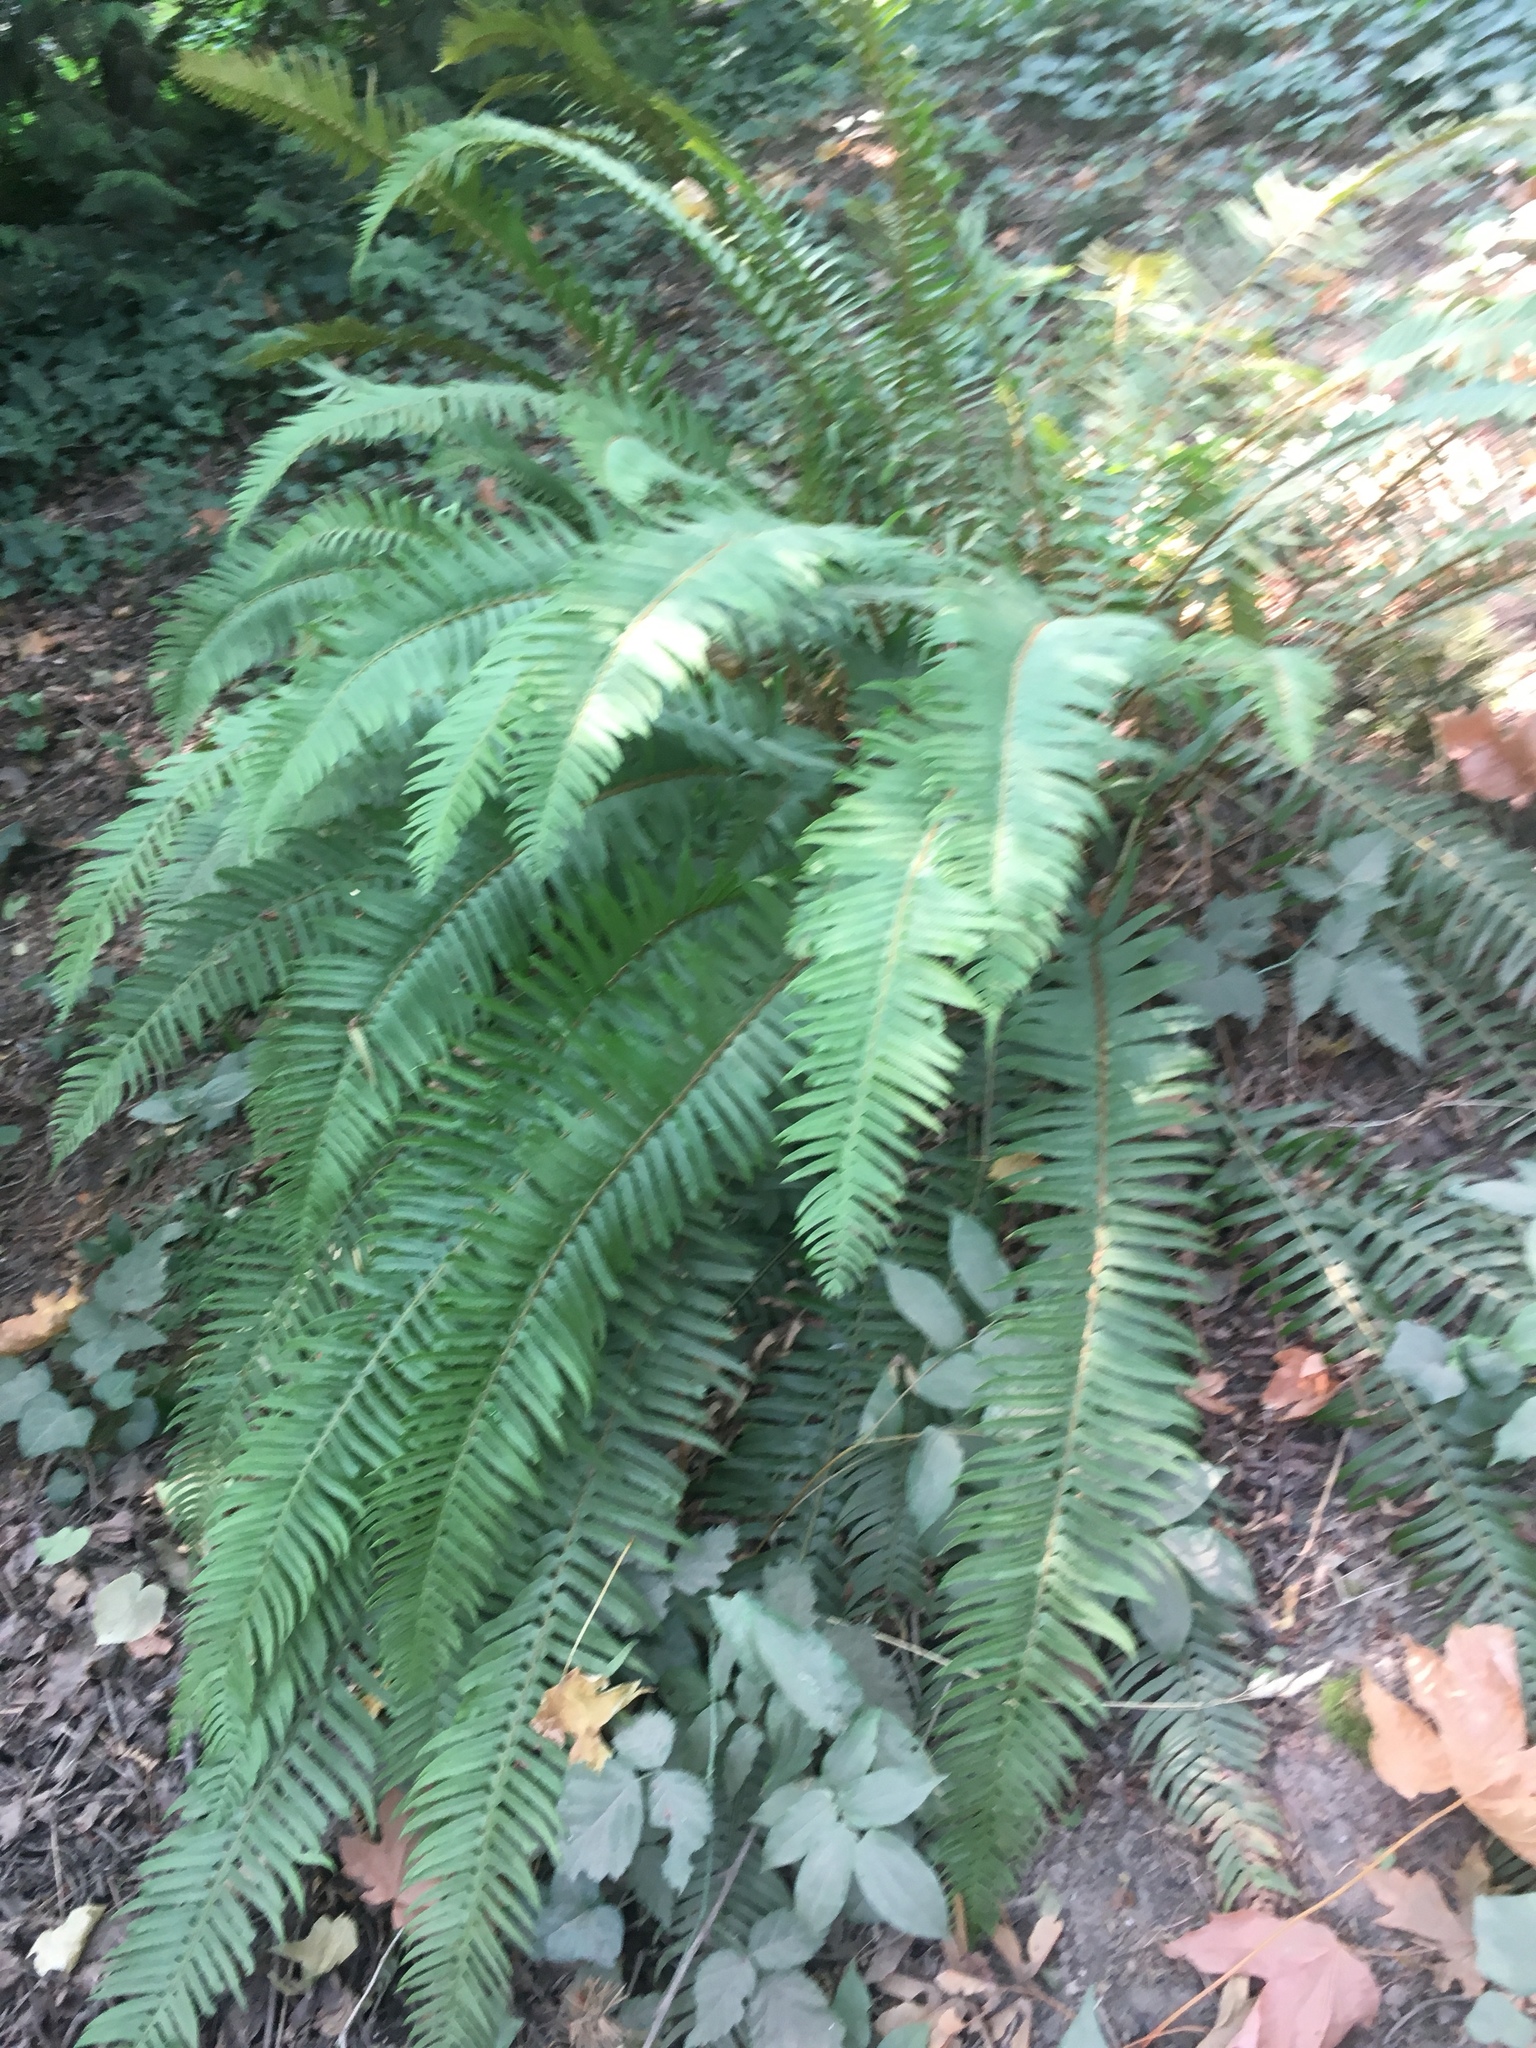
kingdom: Plantae
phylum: Tracheophyta
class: Polypodiopsida
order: Polypodiales
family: Dryopteridaceae
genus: Polystichum
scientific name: Polystichum munitum
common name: Western sword-fern
